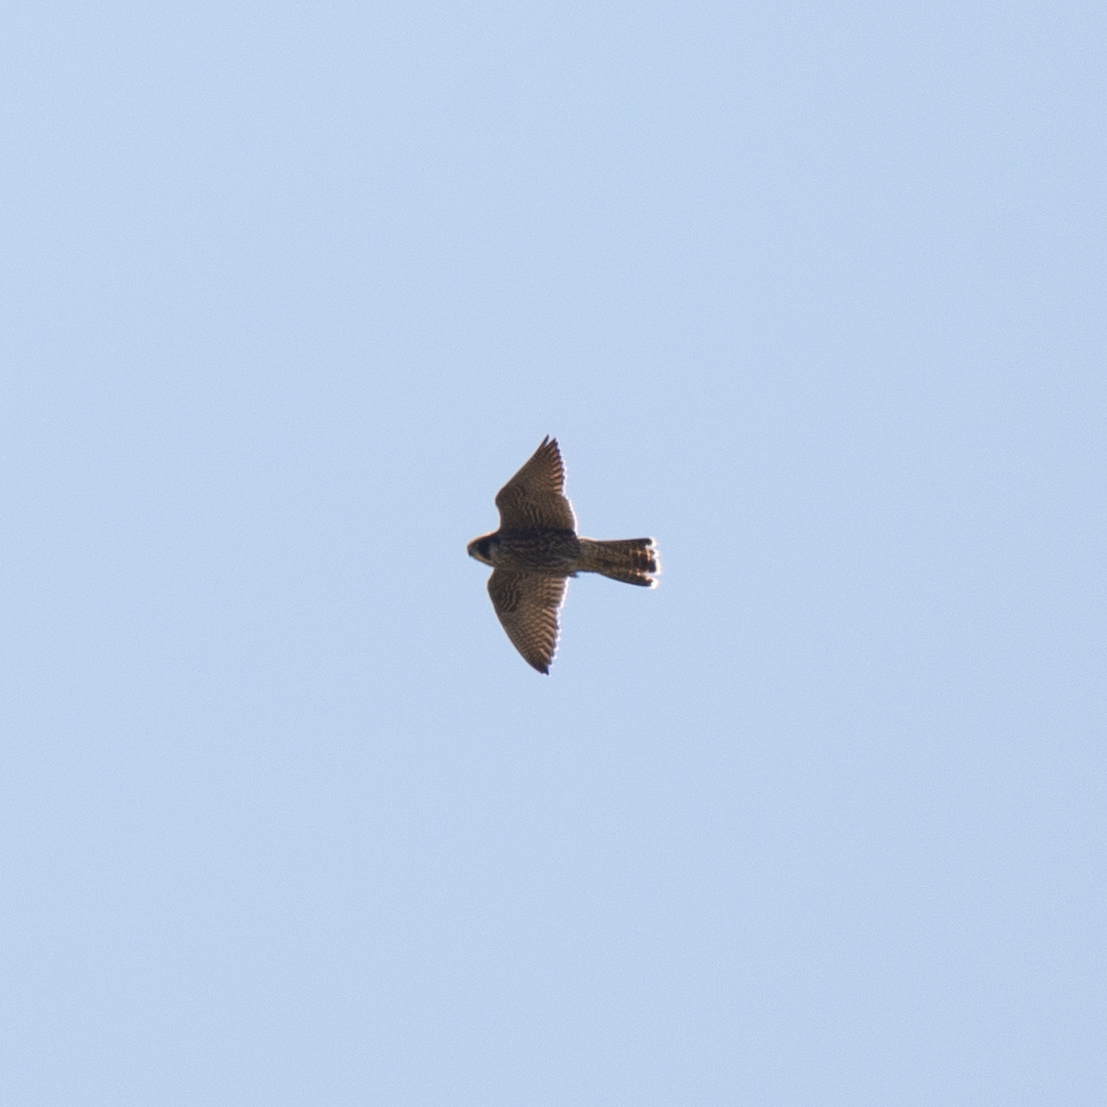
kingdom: Animalia
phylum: Chordata
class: Aves
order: Falconiformes
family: Falconidae
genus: Falco
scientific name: Falco peregrinus
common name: Peregrine falcon
